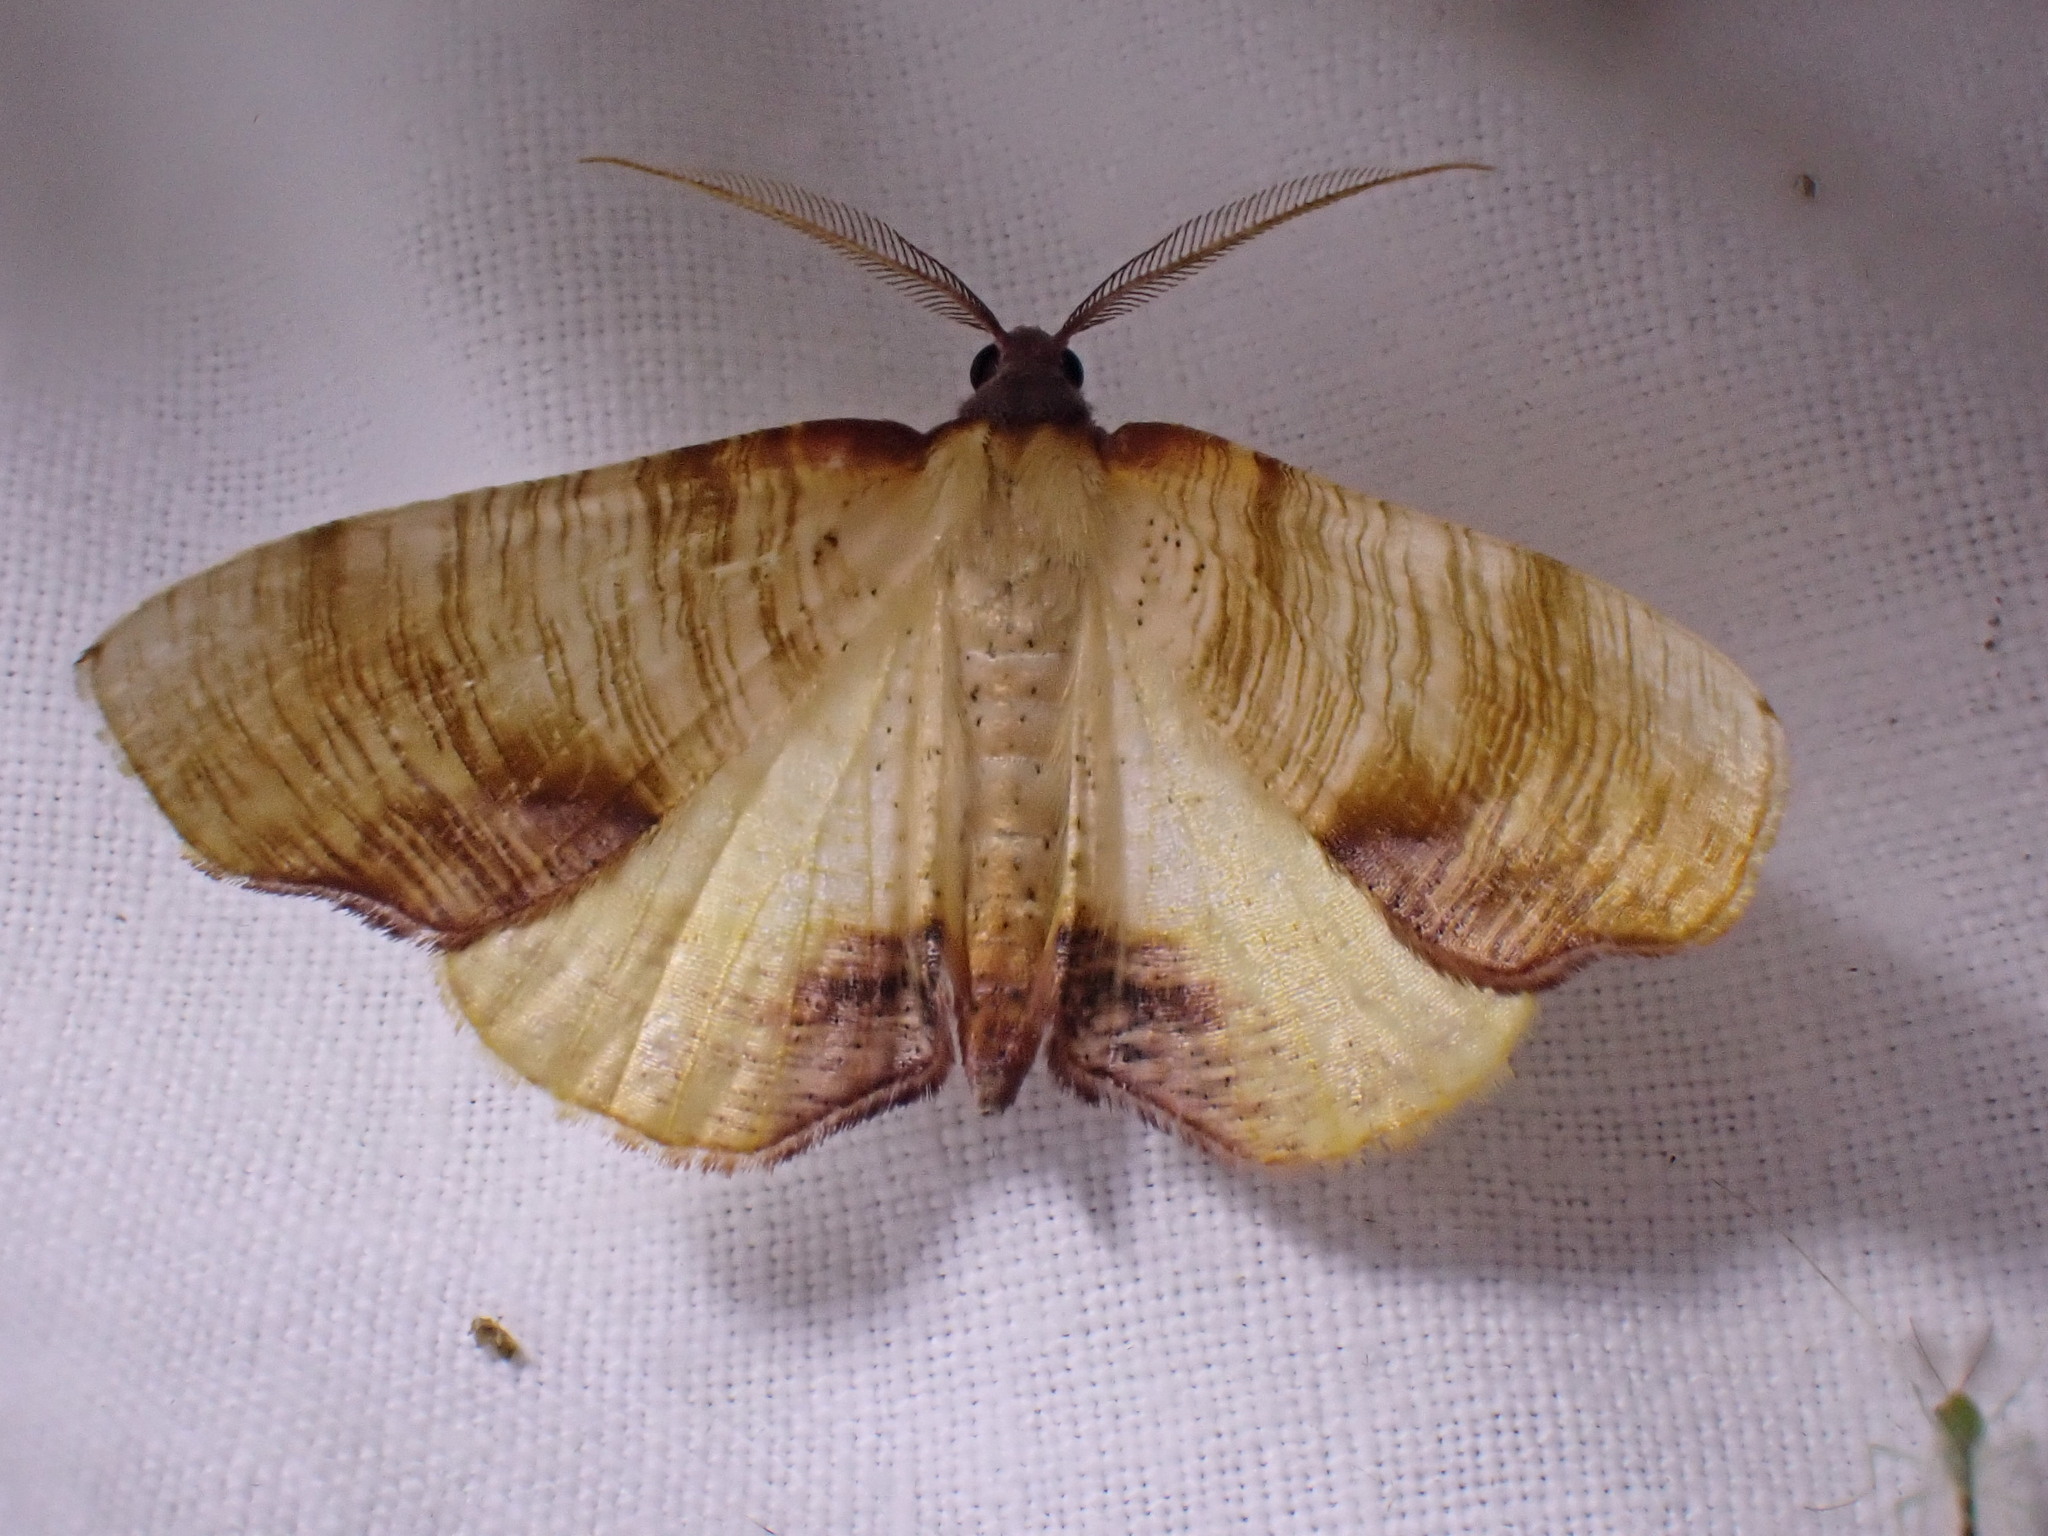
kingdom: Animalia
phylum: Arthropoda
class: Insecta
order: Lepidoptera
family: Geometridae
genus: Plagodis
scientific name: Plagodis dolabraria
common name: Scorched wing
